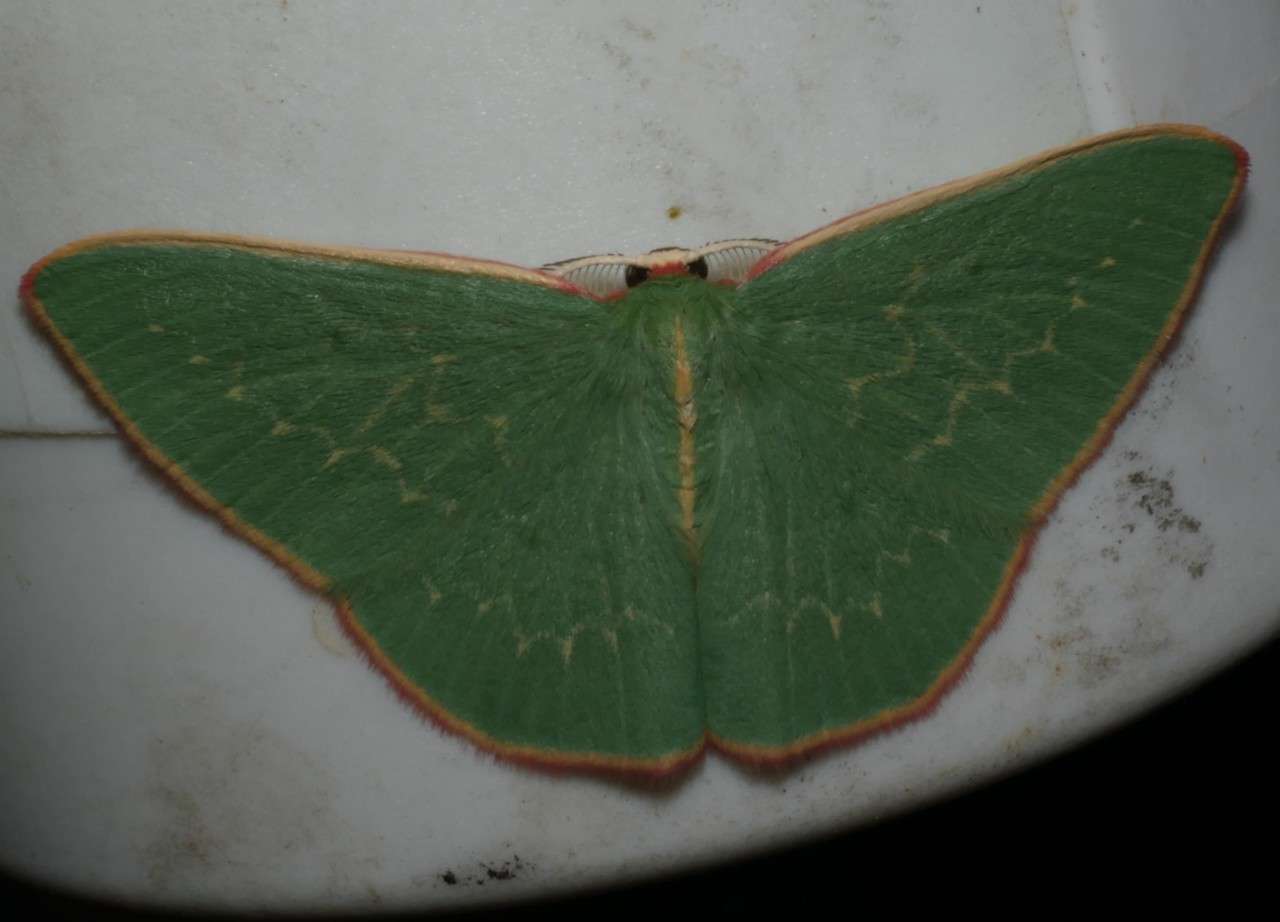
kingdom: Animalia
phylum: Arthropoda
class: Insecta
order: Lepidoptera
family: Geometridae
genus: Chlorocoma
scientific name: Chlorocoma dichloraria
